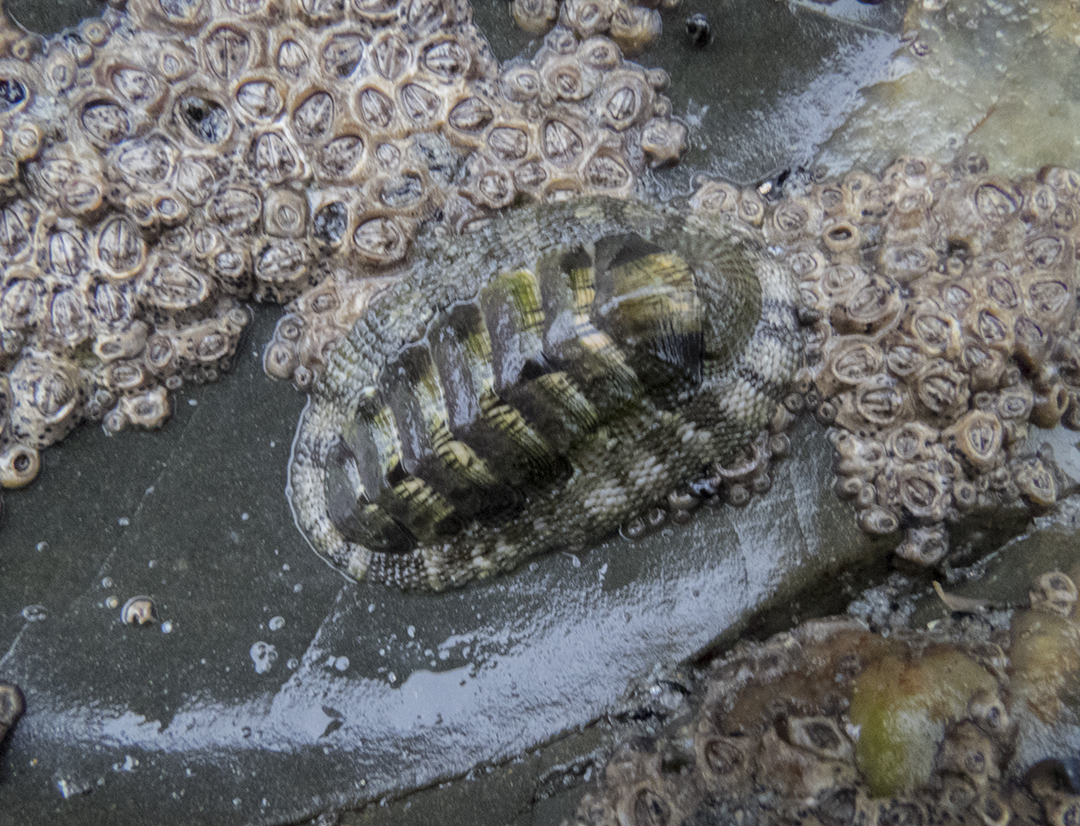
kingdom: Animalia
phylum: Mollusca
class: Polyplacophora
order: Chitonida
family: Chitonidae
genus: Sypharochiton
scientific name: Sypharochiton pelliserpentis
